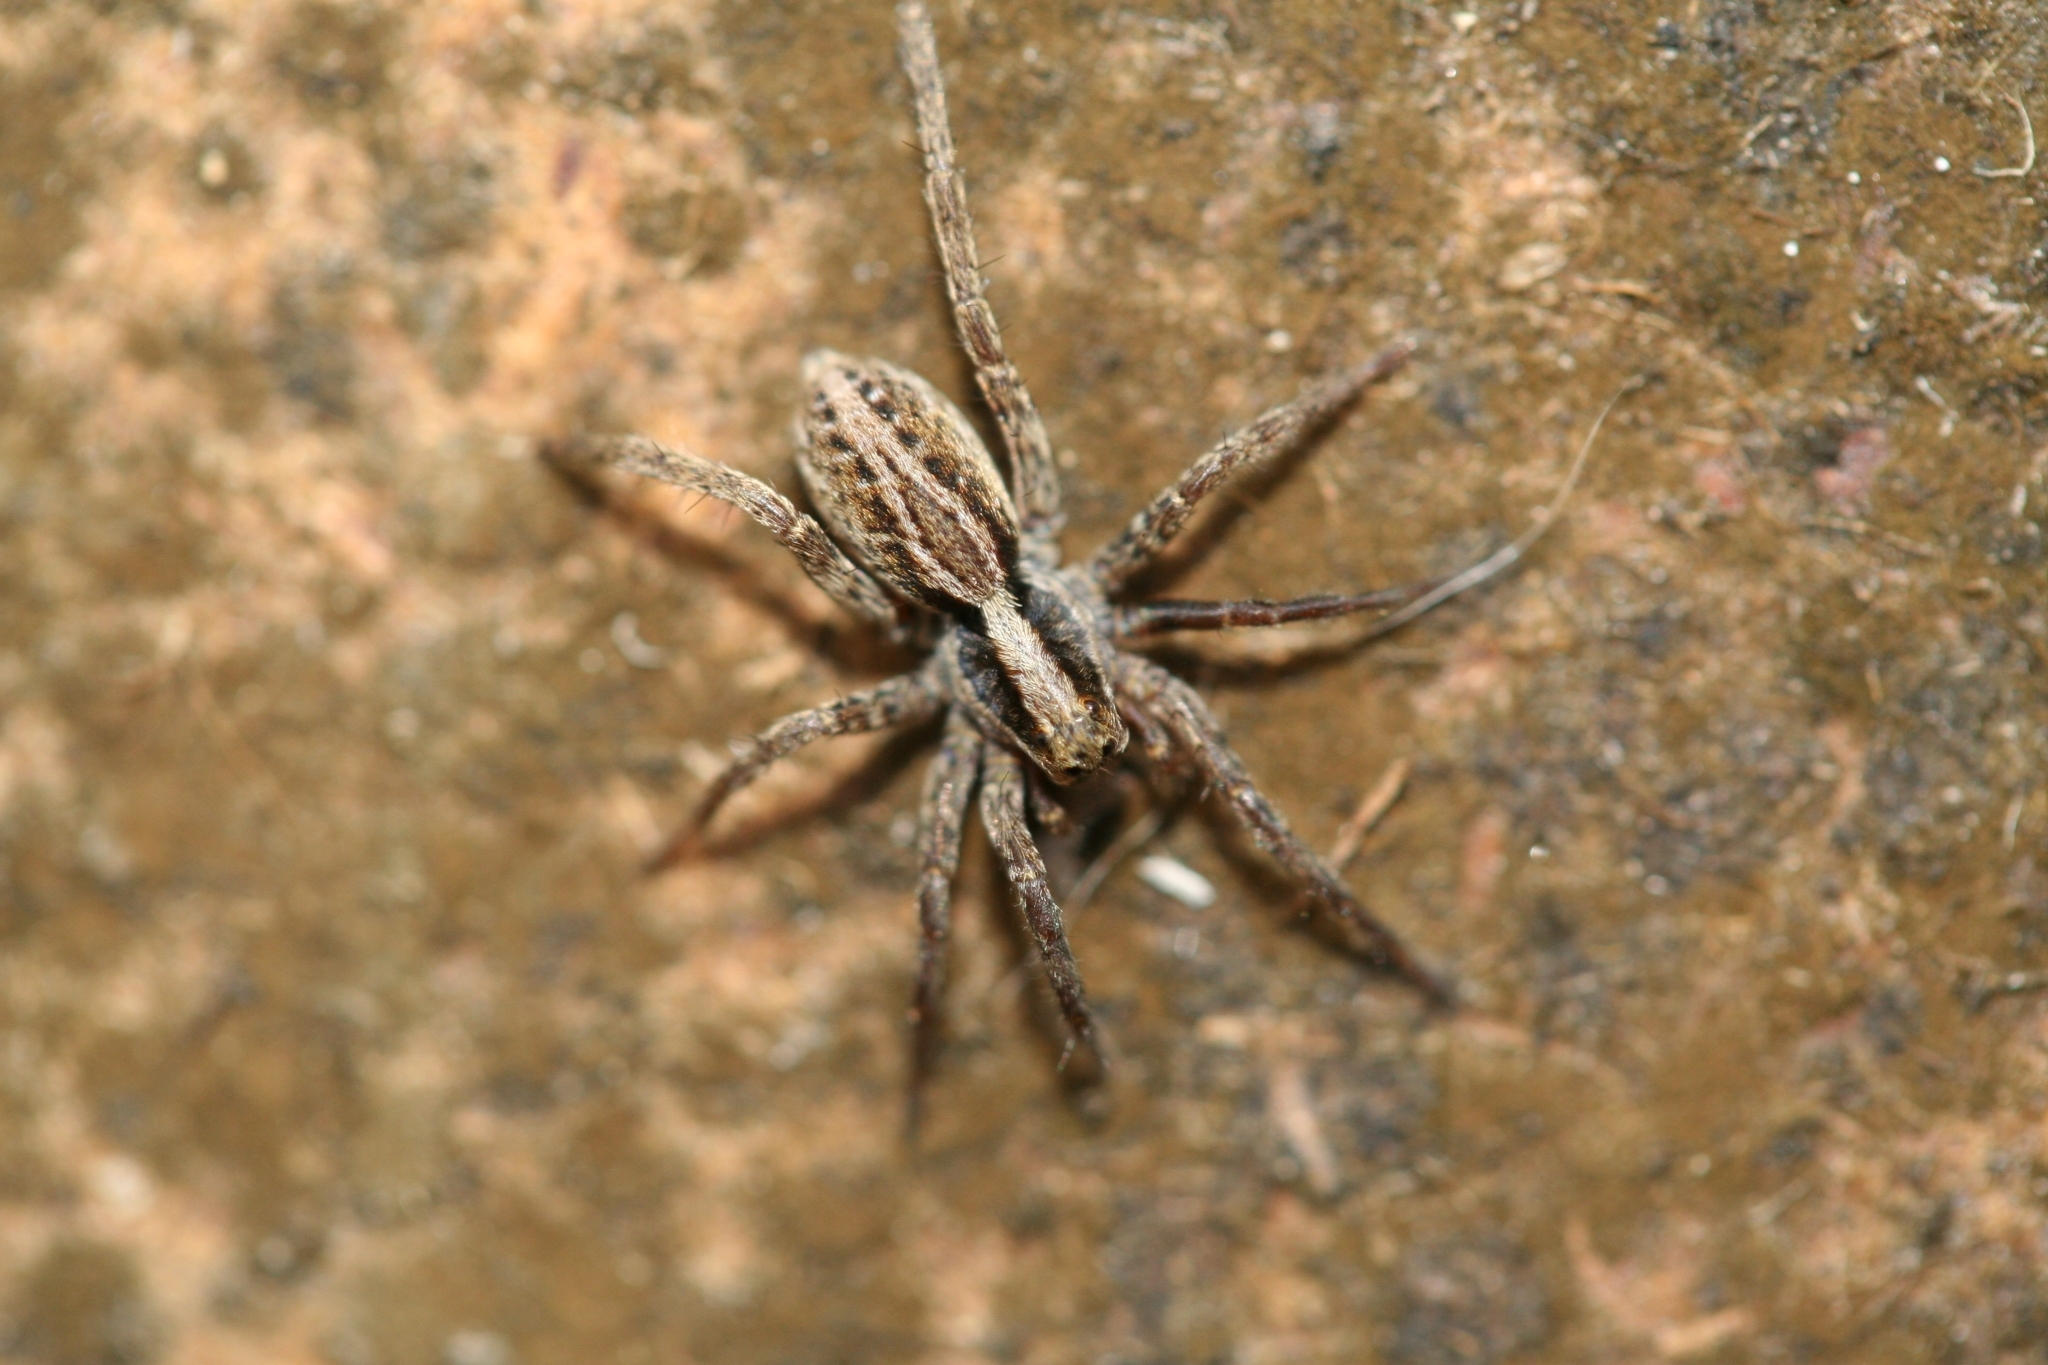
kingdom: Animalia
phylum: Arthropoda
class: Arachnida
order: Araneae
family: Lycosidae
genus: Alopecosa
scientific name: Alopecosa cuneata
